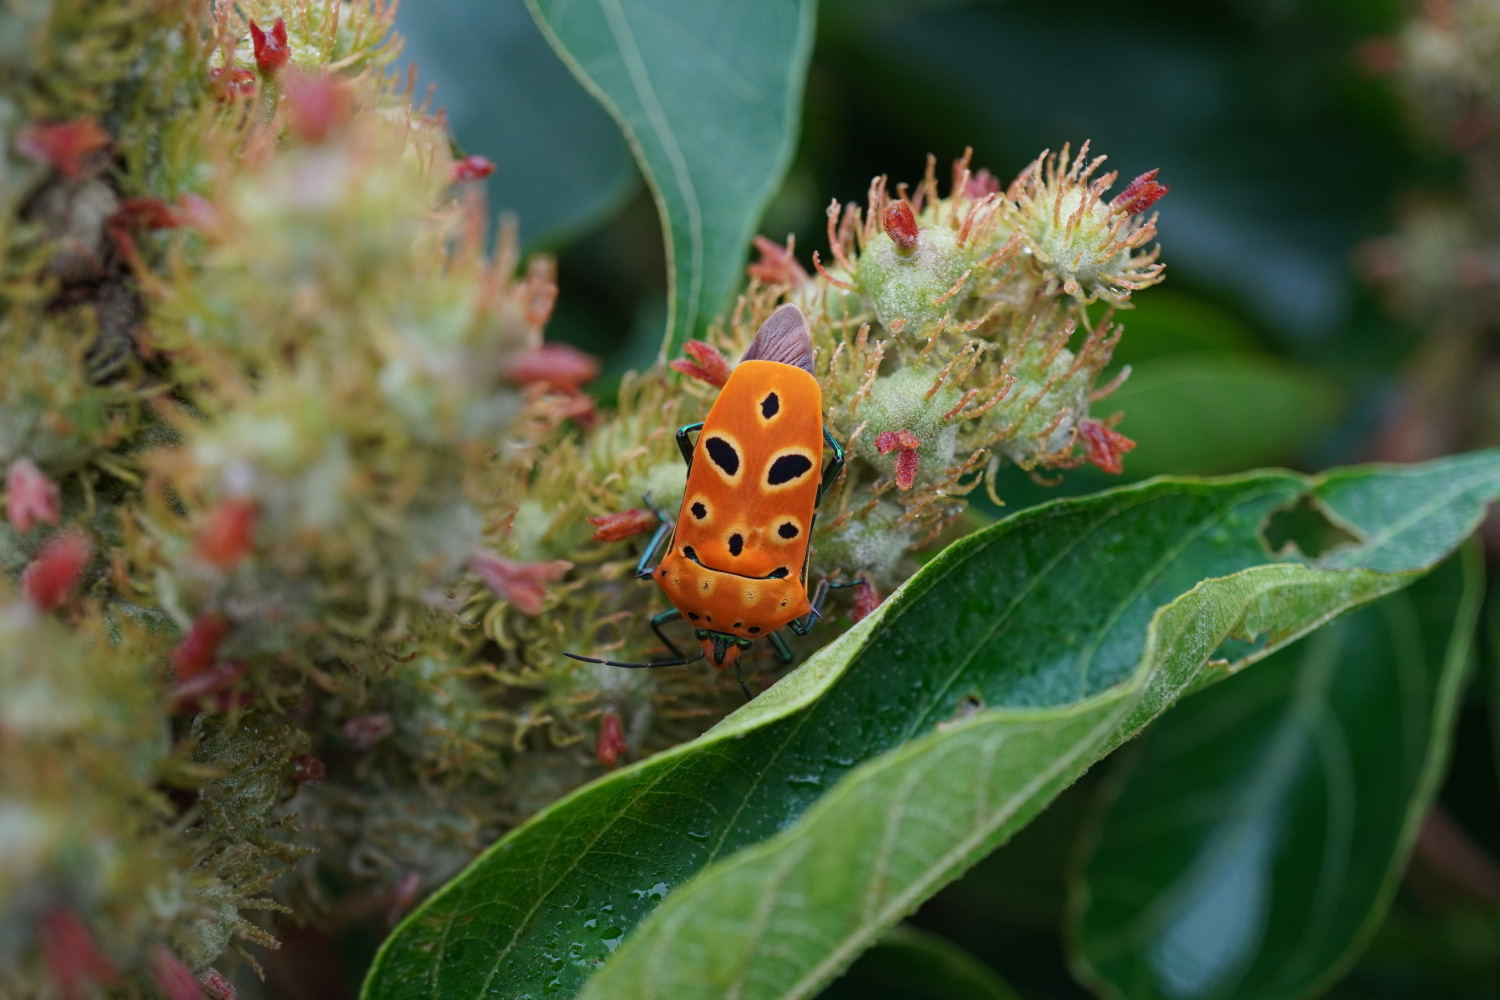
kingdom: Animalia
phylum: Arthropoda
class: Insecta
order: Hemiptera
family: Scutelleridae
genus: Cantao
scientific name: Cantao ocellatus
